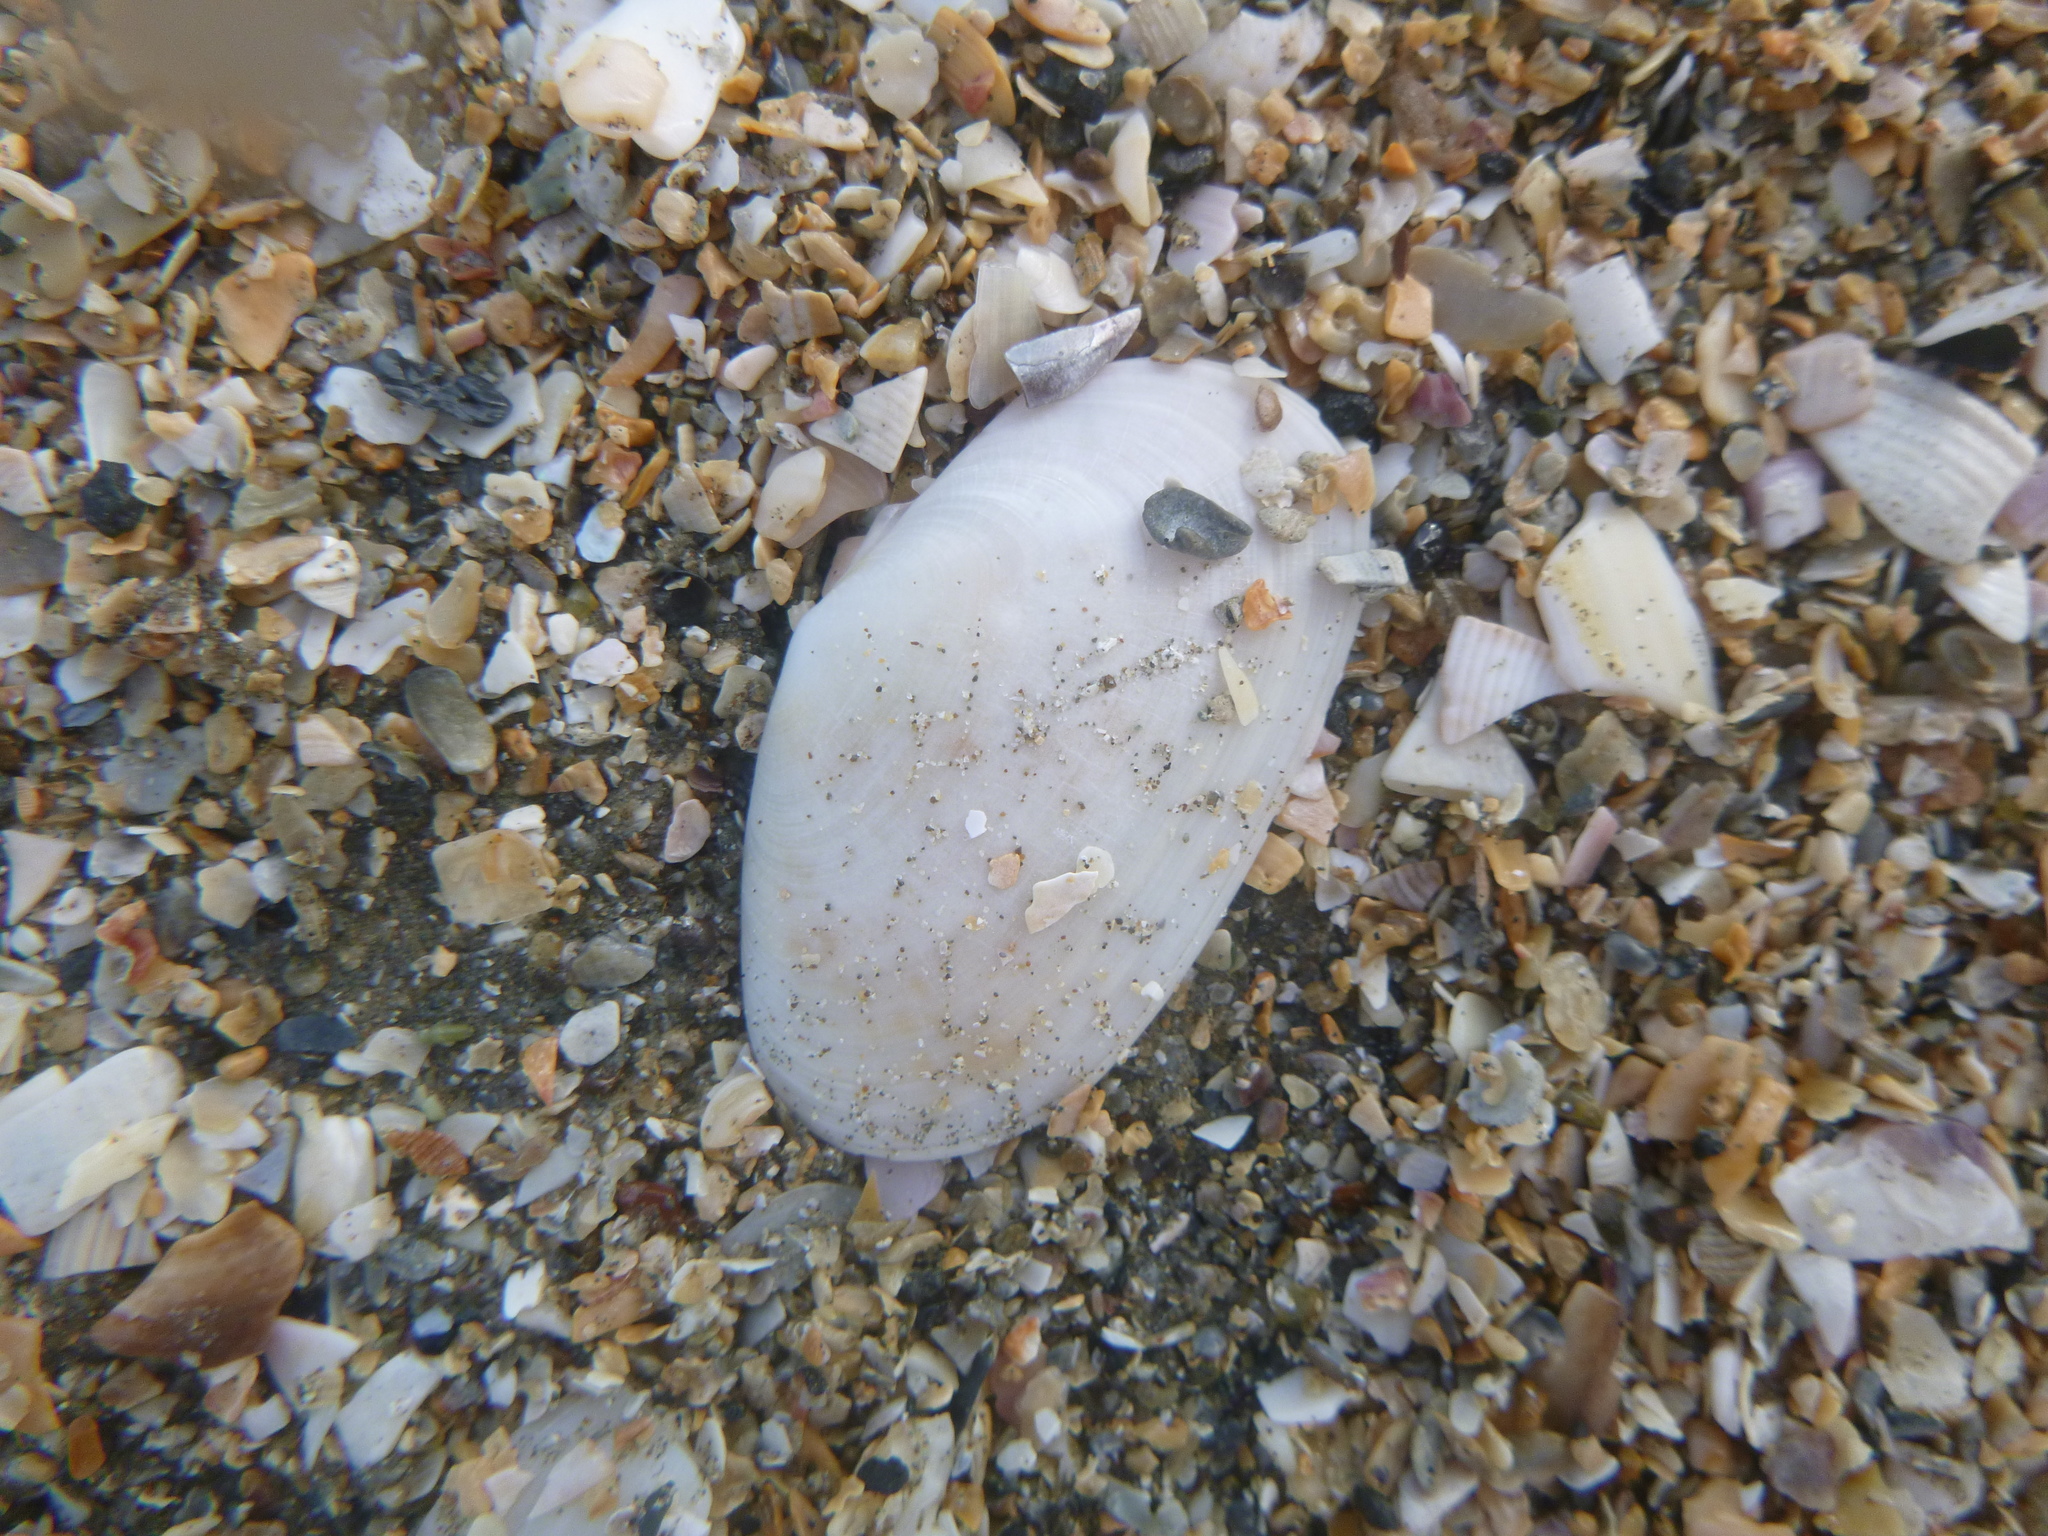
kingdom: Animalia
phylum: Mollusca
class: Bivalvia
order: Venerida
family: Mesodesmatidae
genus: Paphies
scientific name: Paphies australis
